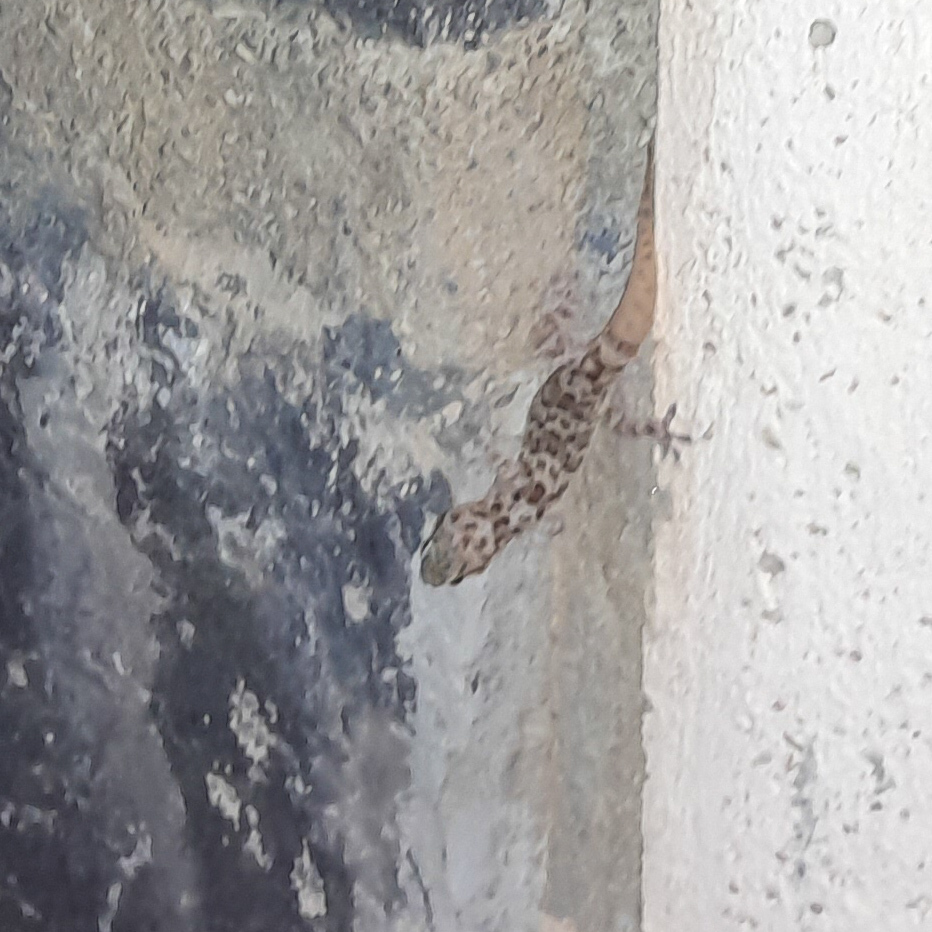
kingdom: Animalia
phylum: Chordata
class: Squamata
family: Gekkonidae
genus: Hemidactylus
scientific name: Hemidactylus turcicus
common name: Turkish gecko
